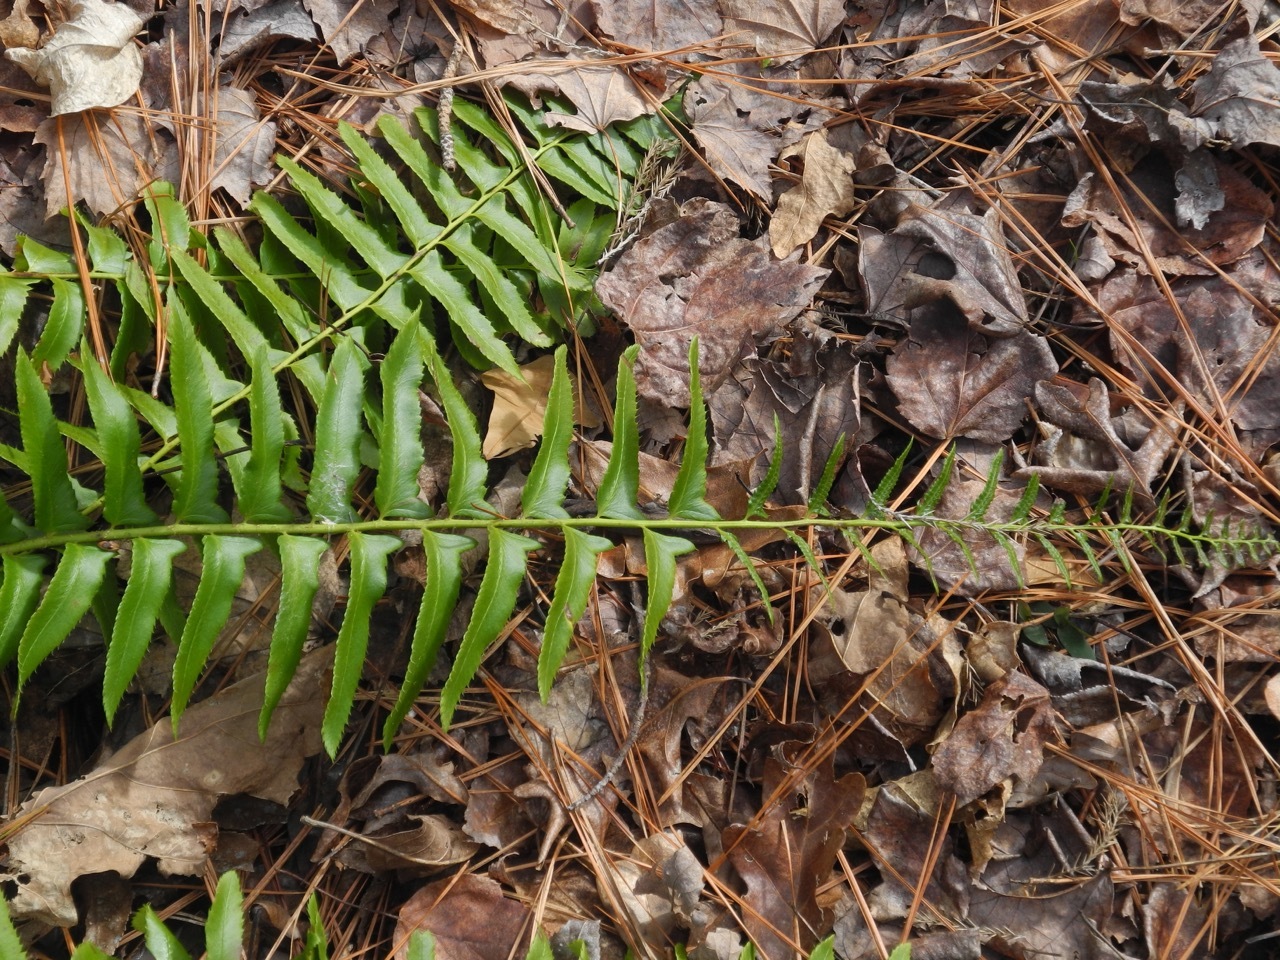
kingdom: Plantae
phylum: Tracheophyta
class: Polypodiopsida
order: Polypodiales
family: Dryopteridaceae
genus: Polystichum
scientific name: Polystichum acrostichoides
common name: Christmas fern
